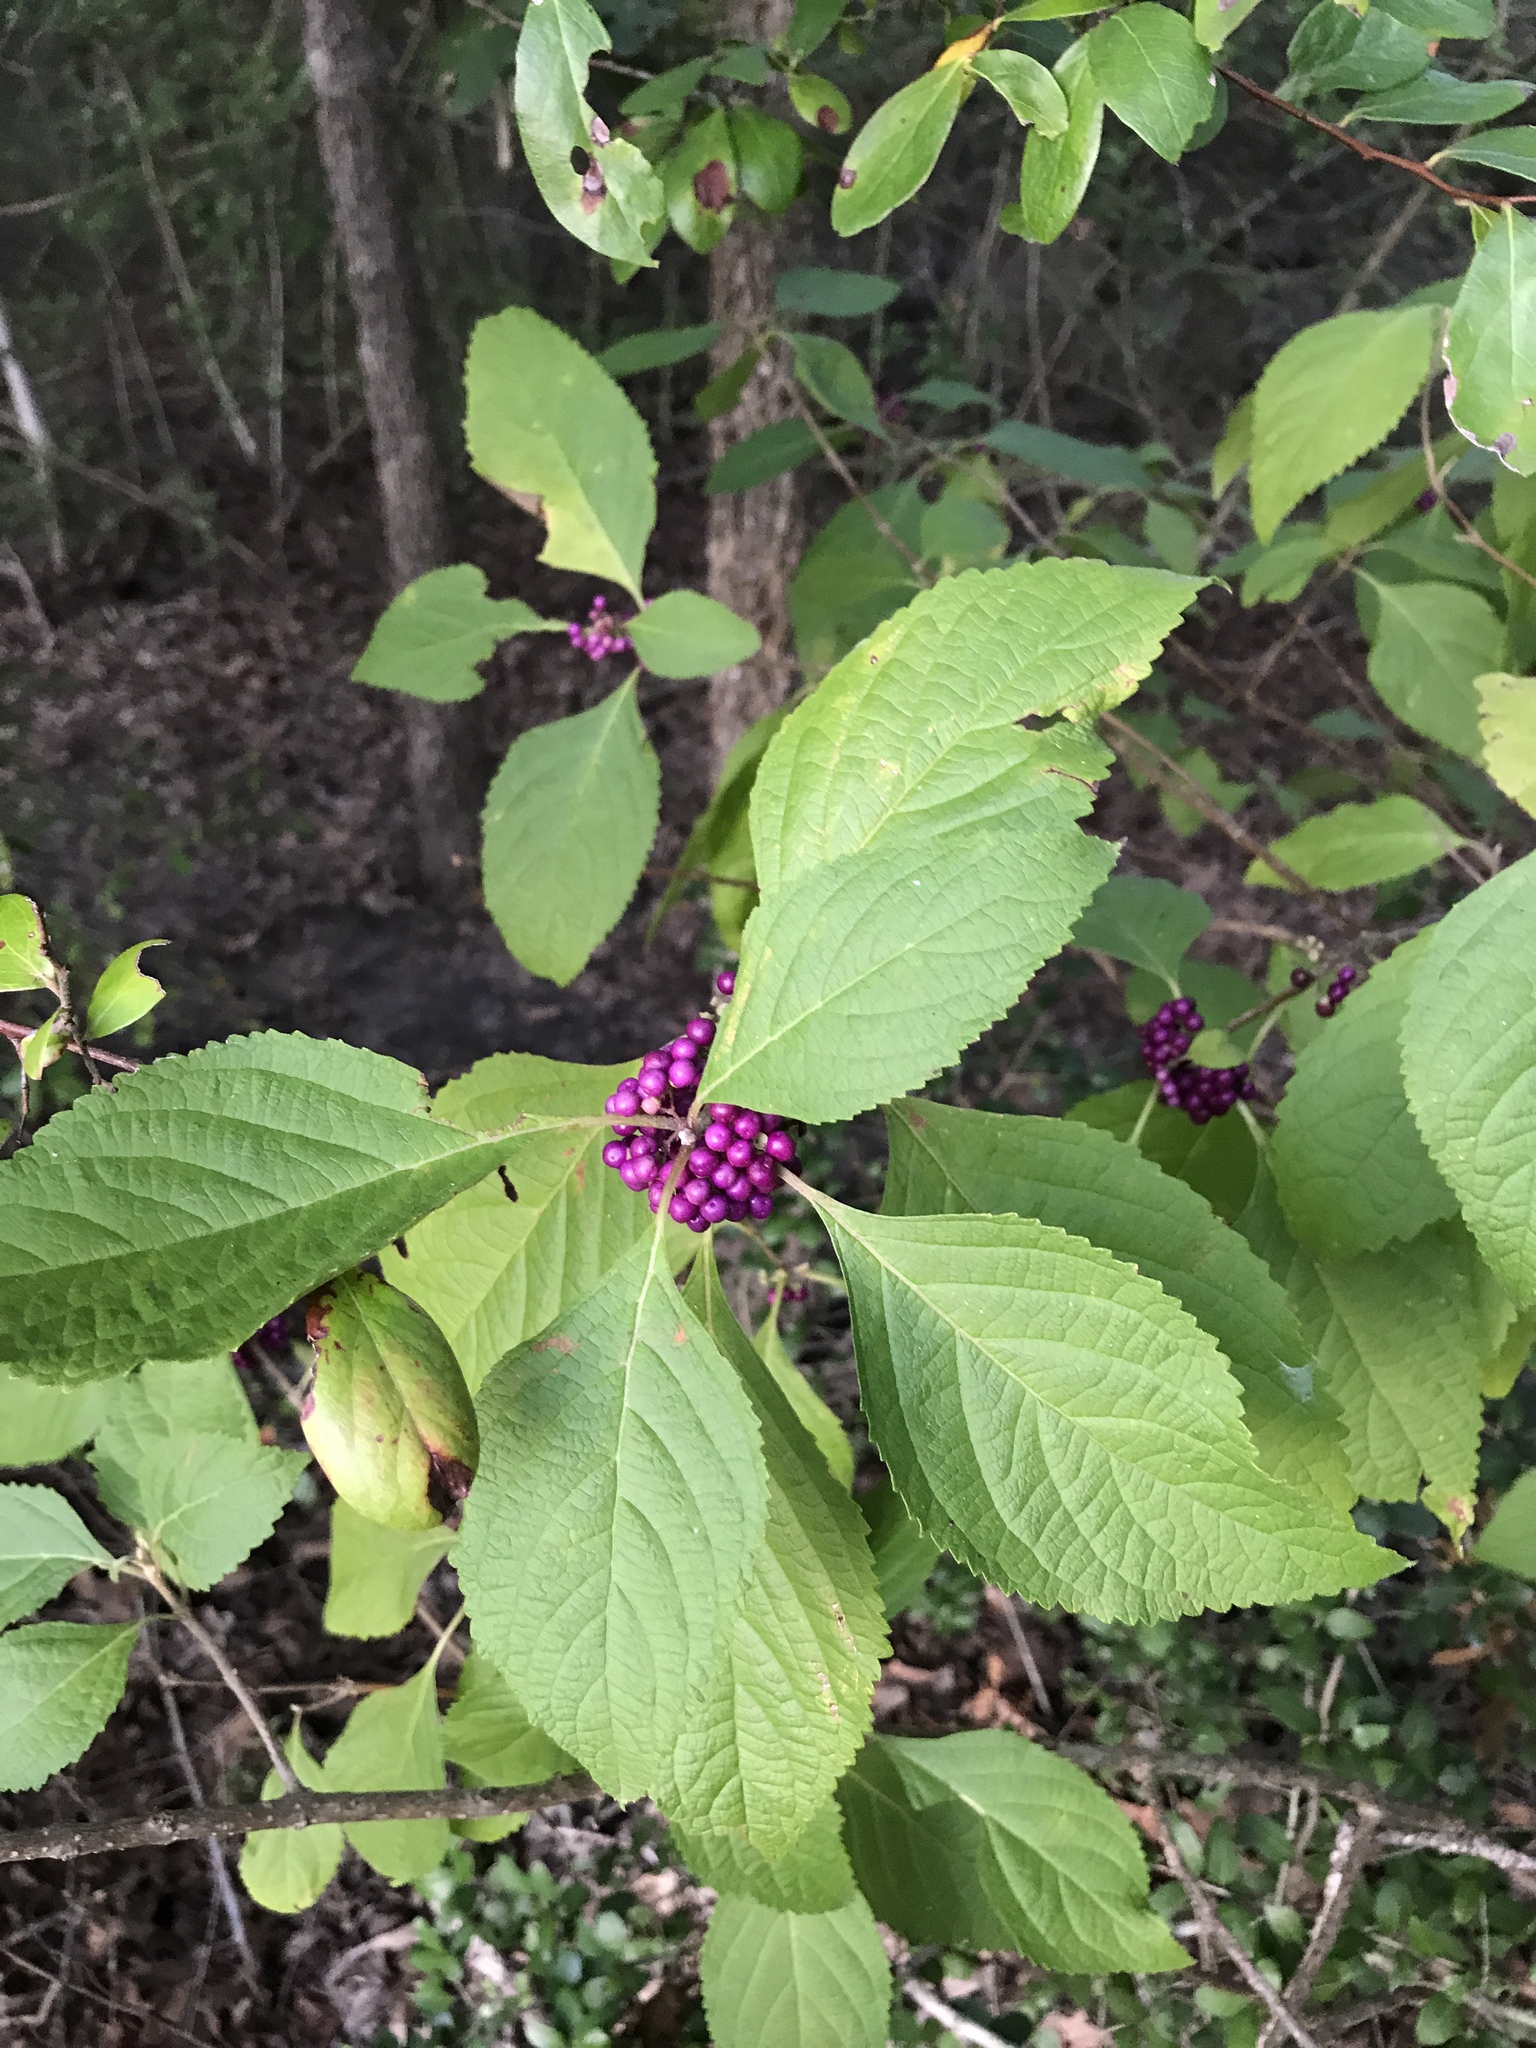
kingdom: Plantae
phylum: Tracheophyta
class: Magnoliopsida
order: Lamiales
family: Lamiaceae
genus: Callicarpa
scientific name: Callicarpa americana
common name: American beautyberry
